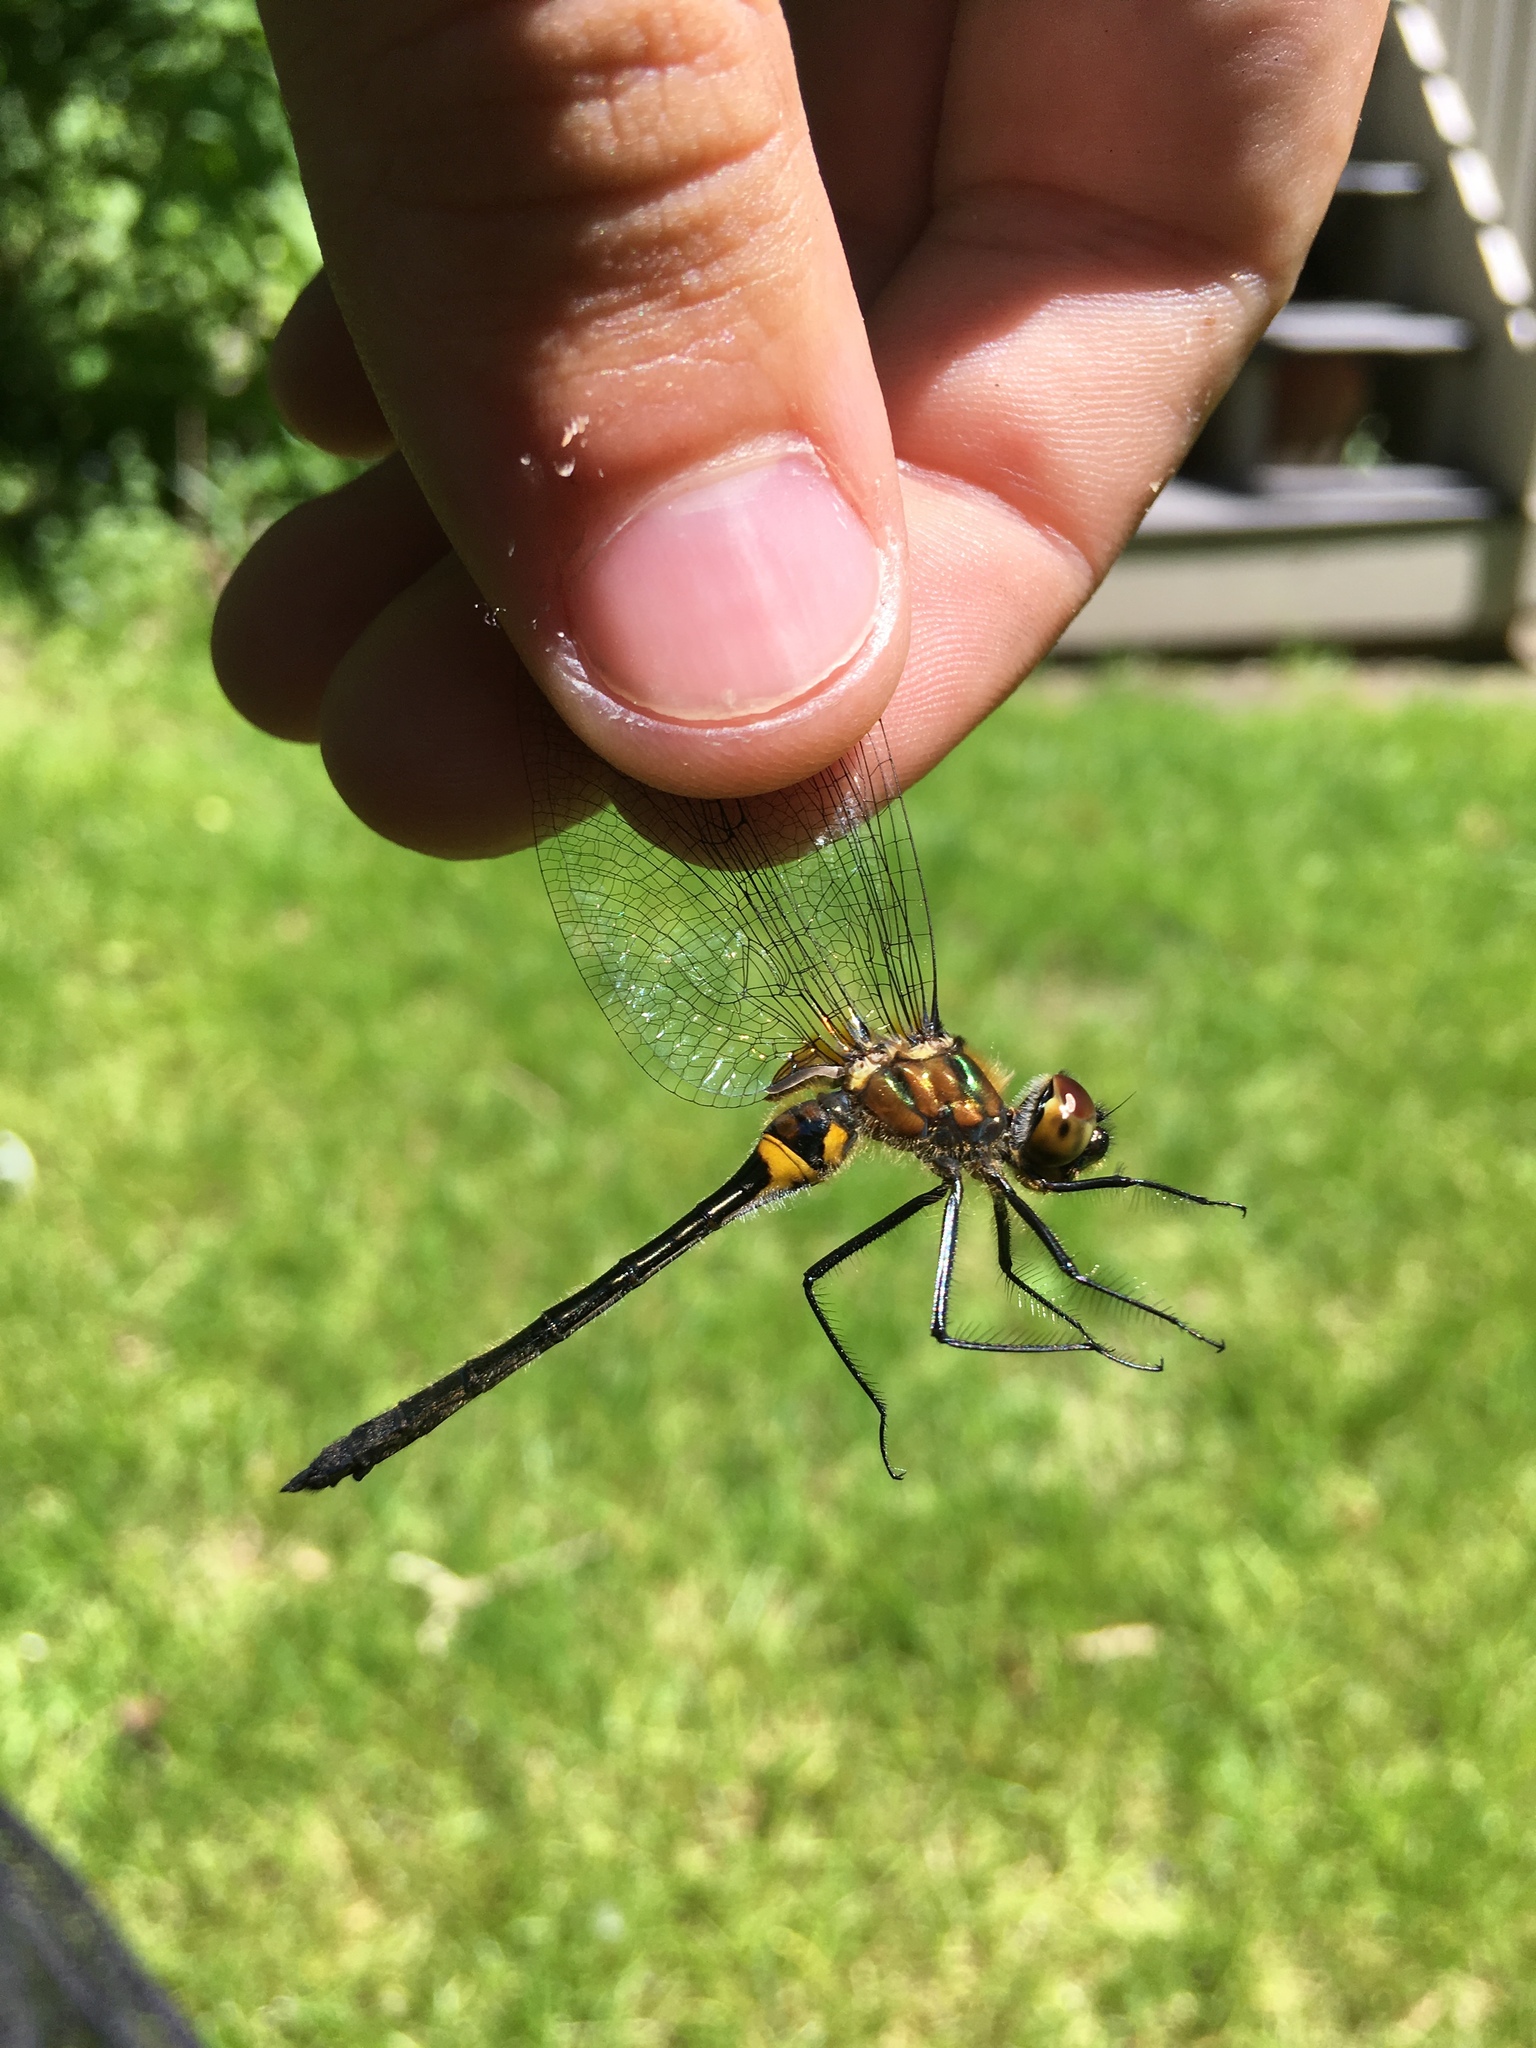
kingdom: Animalia
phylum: Arthropoda
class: Insecta
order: Odonata
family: Corduliidae
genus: Dorocordulia
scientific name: Dorocordulia libera
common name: Racket-tailed emerald
